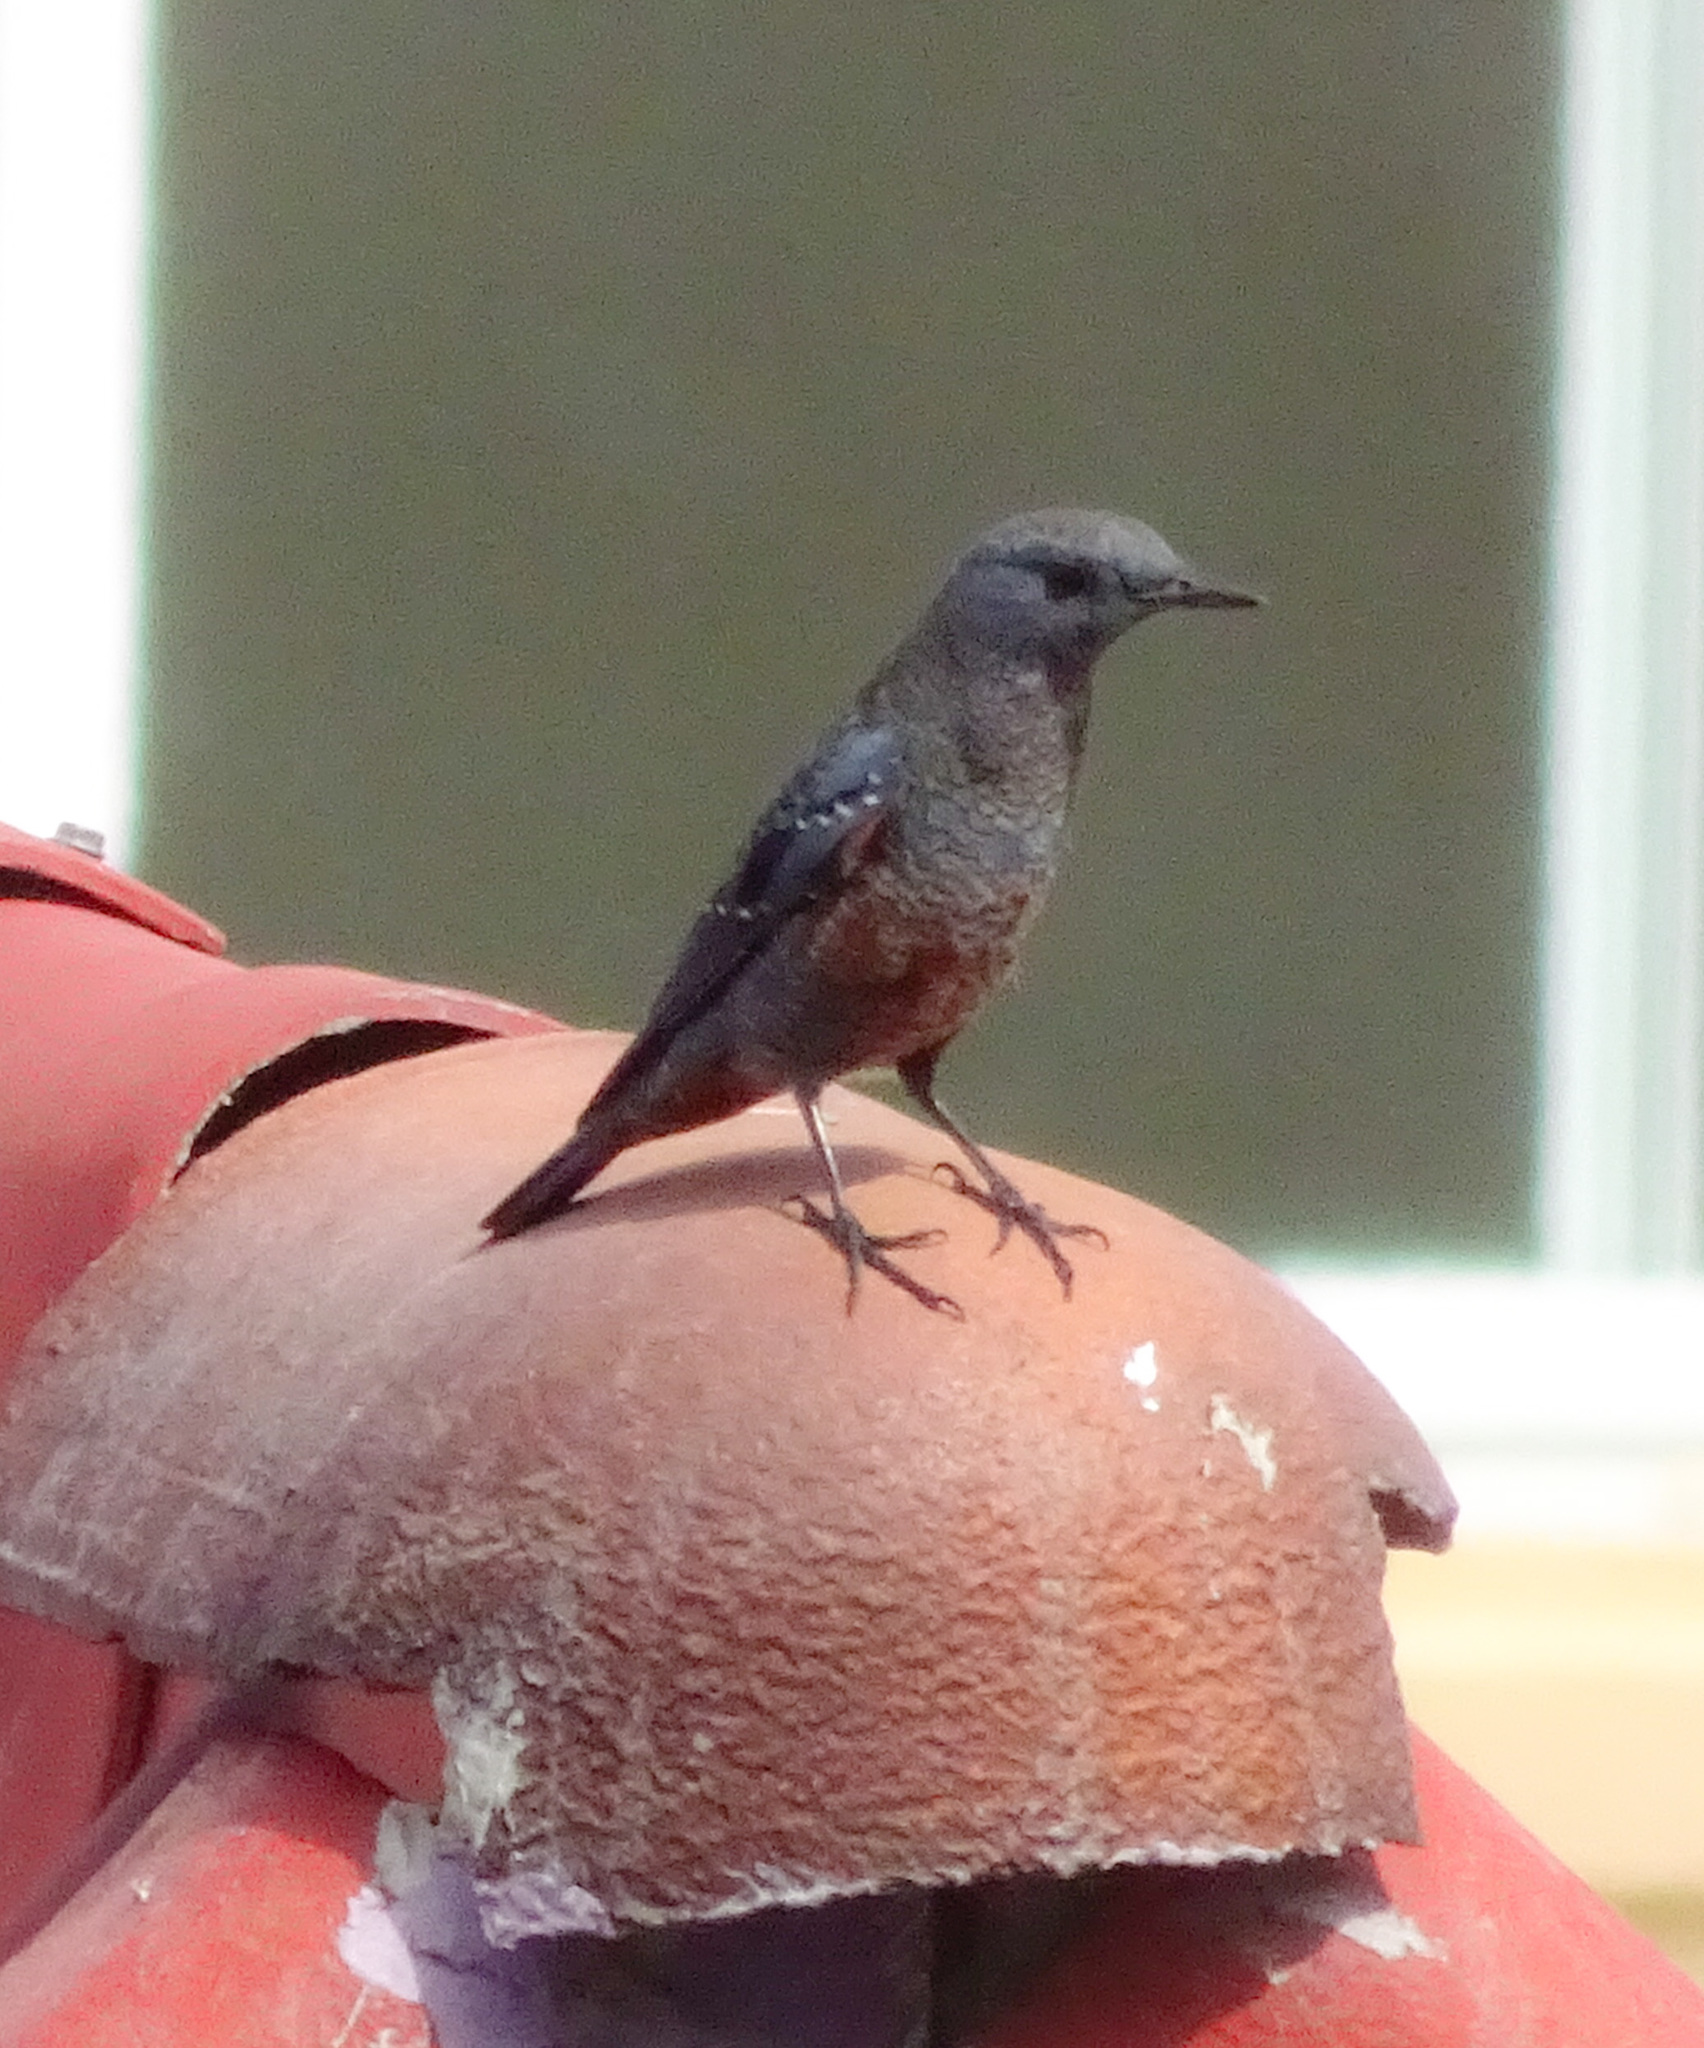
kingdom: Animalia
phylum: Chordata
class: Aves
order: Passeriformes
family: Muscicapidae
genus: Monticola
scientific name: Monticola solitarius
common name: Blue rock thrush
